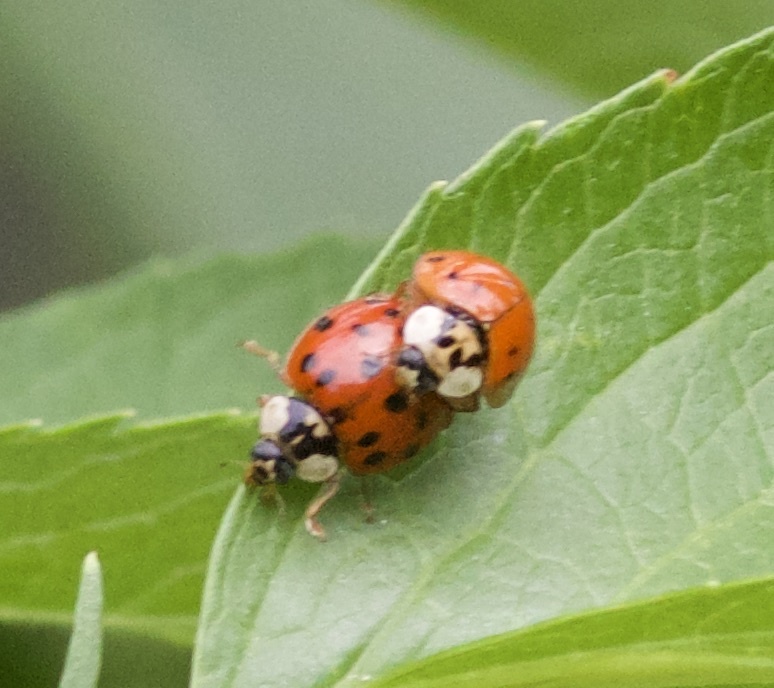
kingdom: Animalia
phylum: Arthropoda
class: Insecta
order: Coleoptera
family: Coccinellidae
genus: Harmonia
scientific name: Harmonia axyridis
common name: Harlequin ladybird
